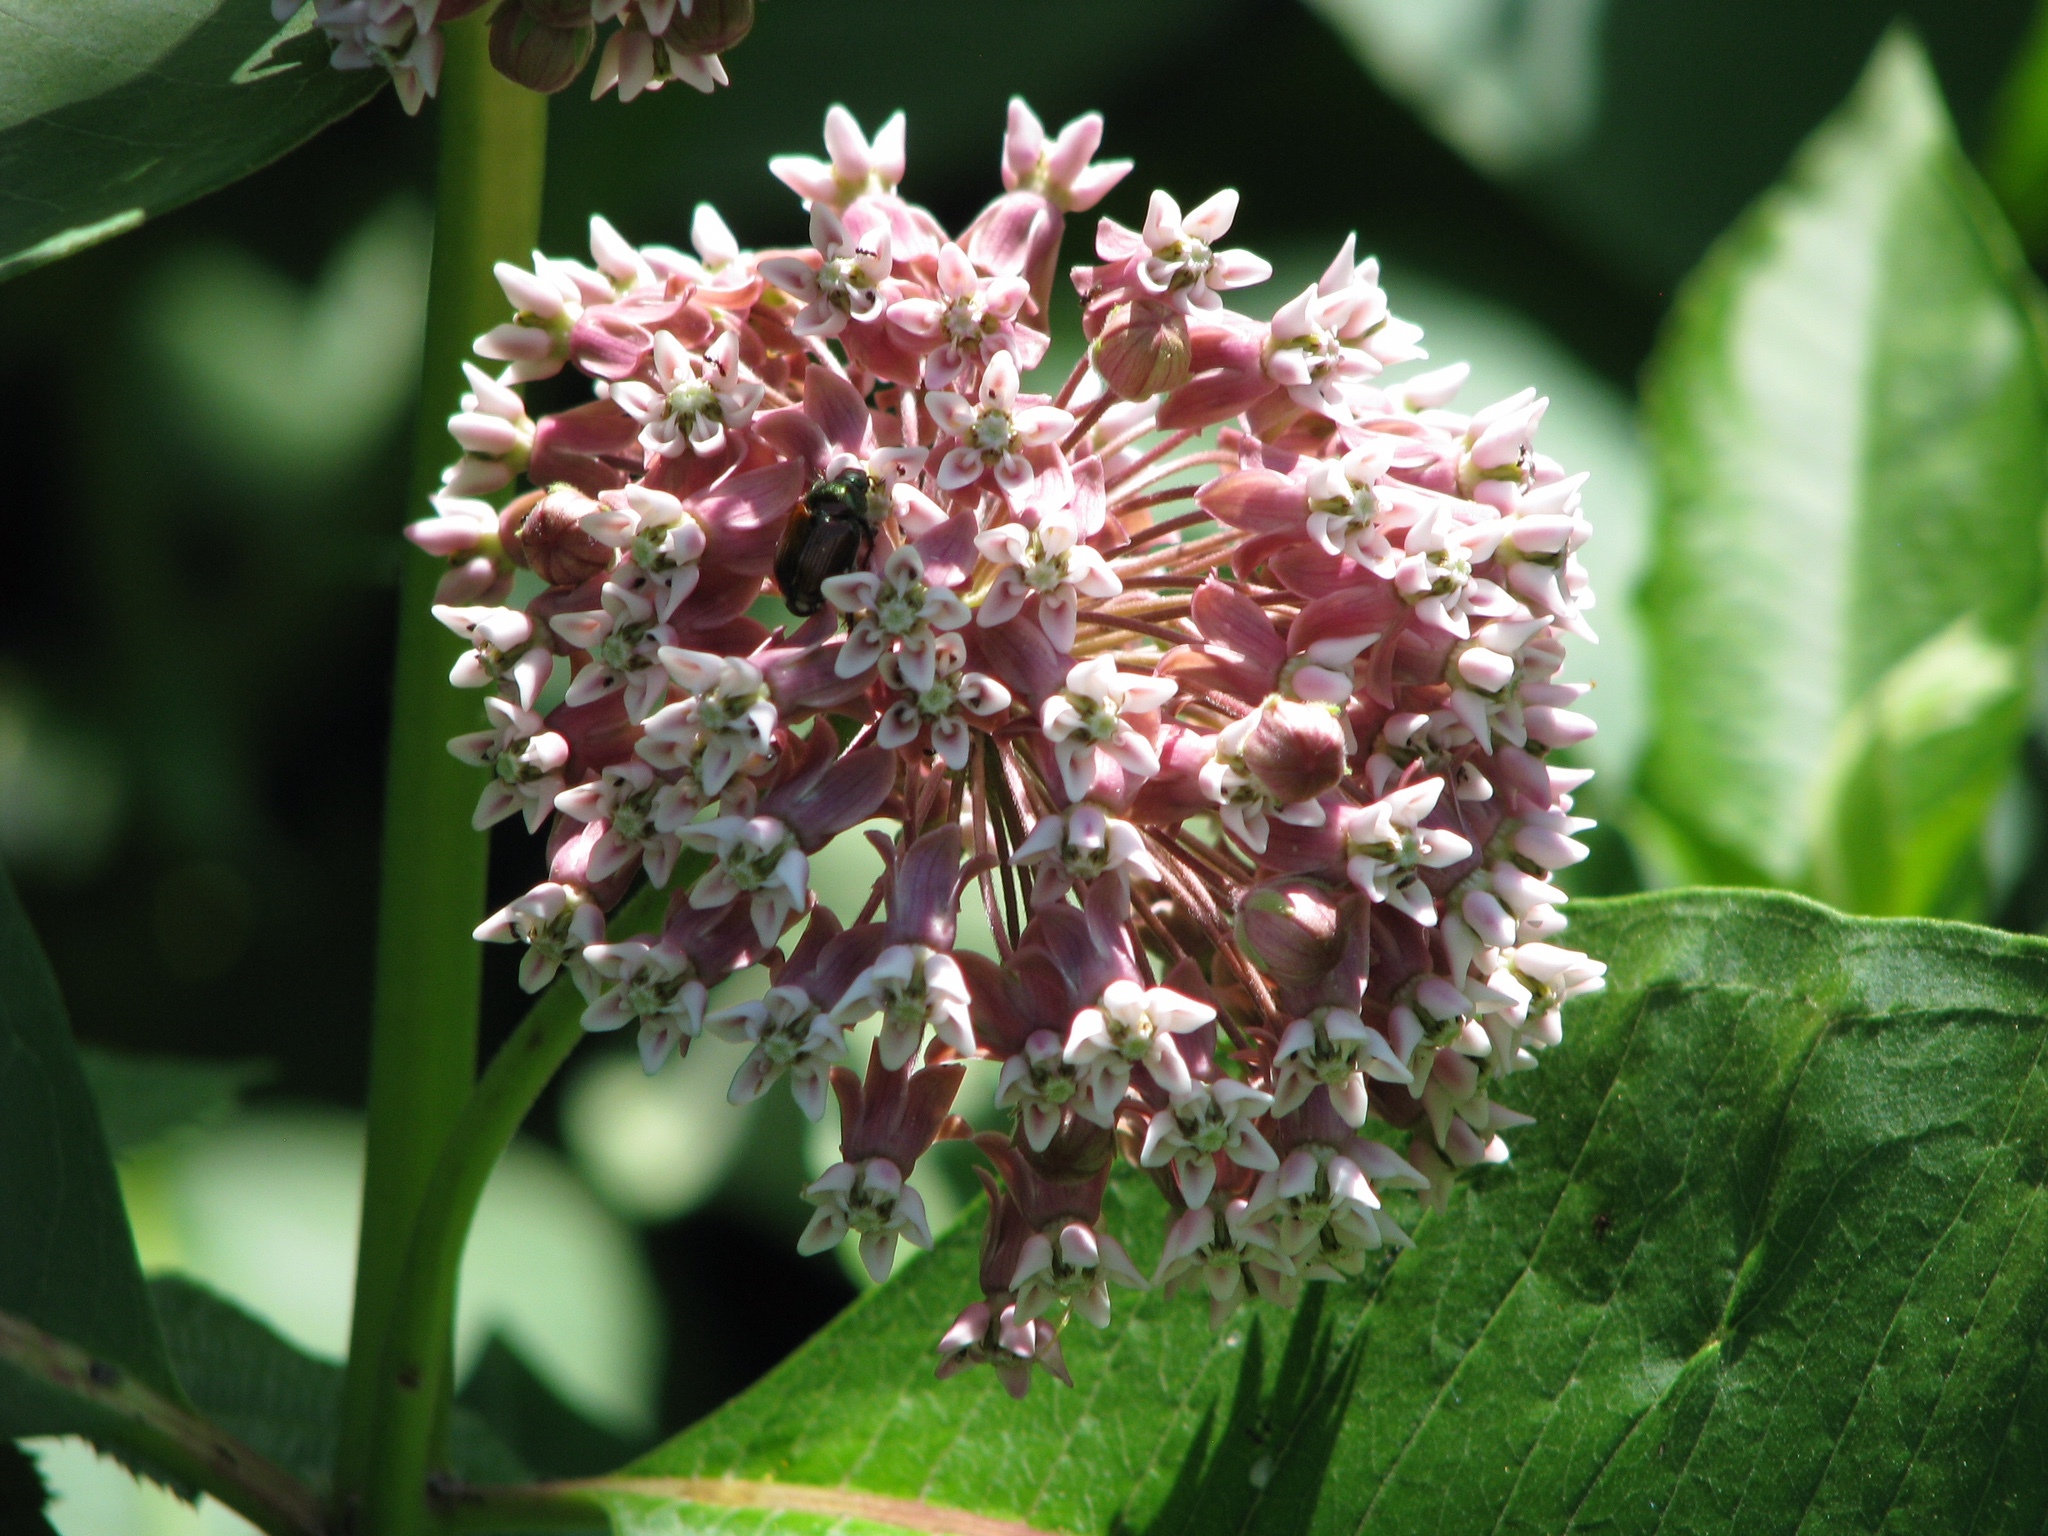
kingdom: Plantae
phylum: Tracheophyta
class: Magnoliopsida
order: Gentianales
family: Apocynaceae
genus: Asclepias
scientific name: Asclepias syriaca
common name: Common milkweed
